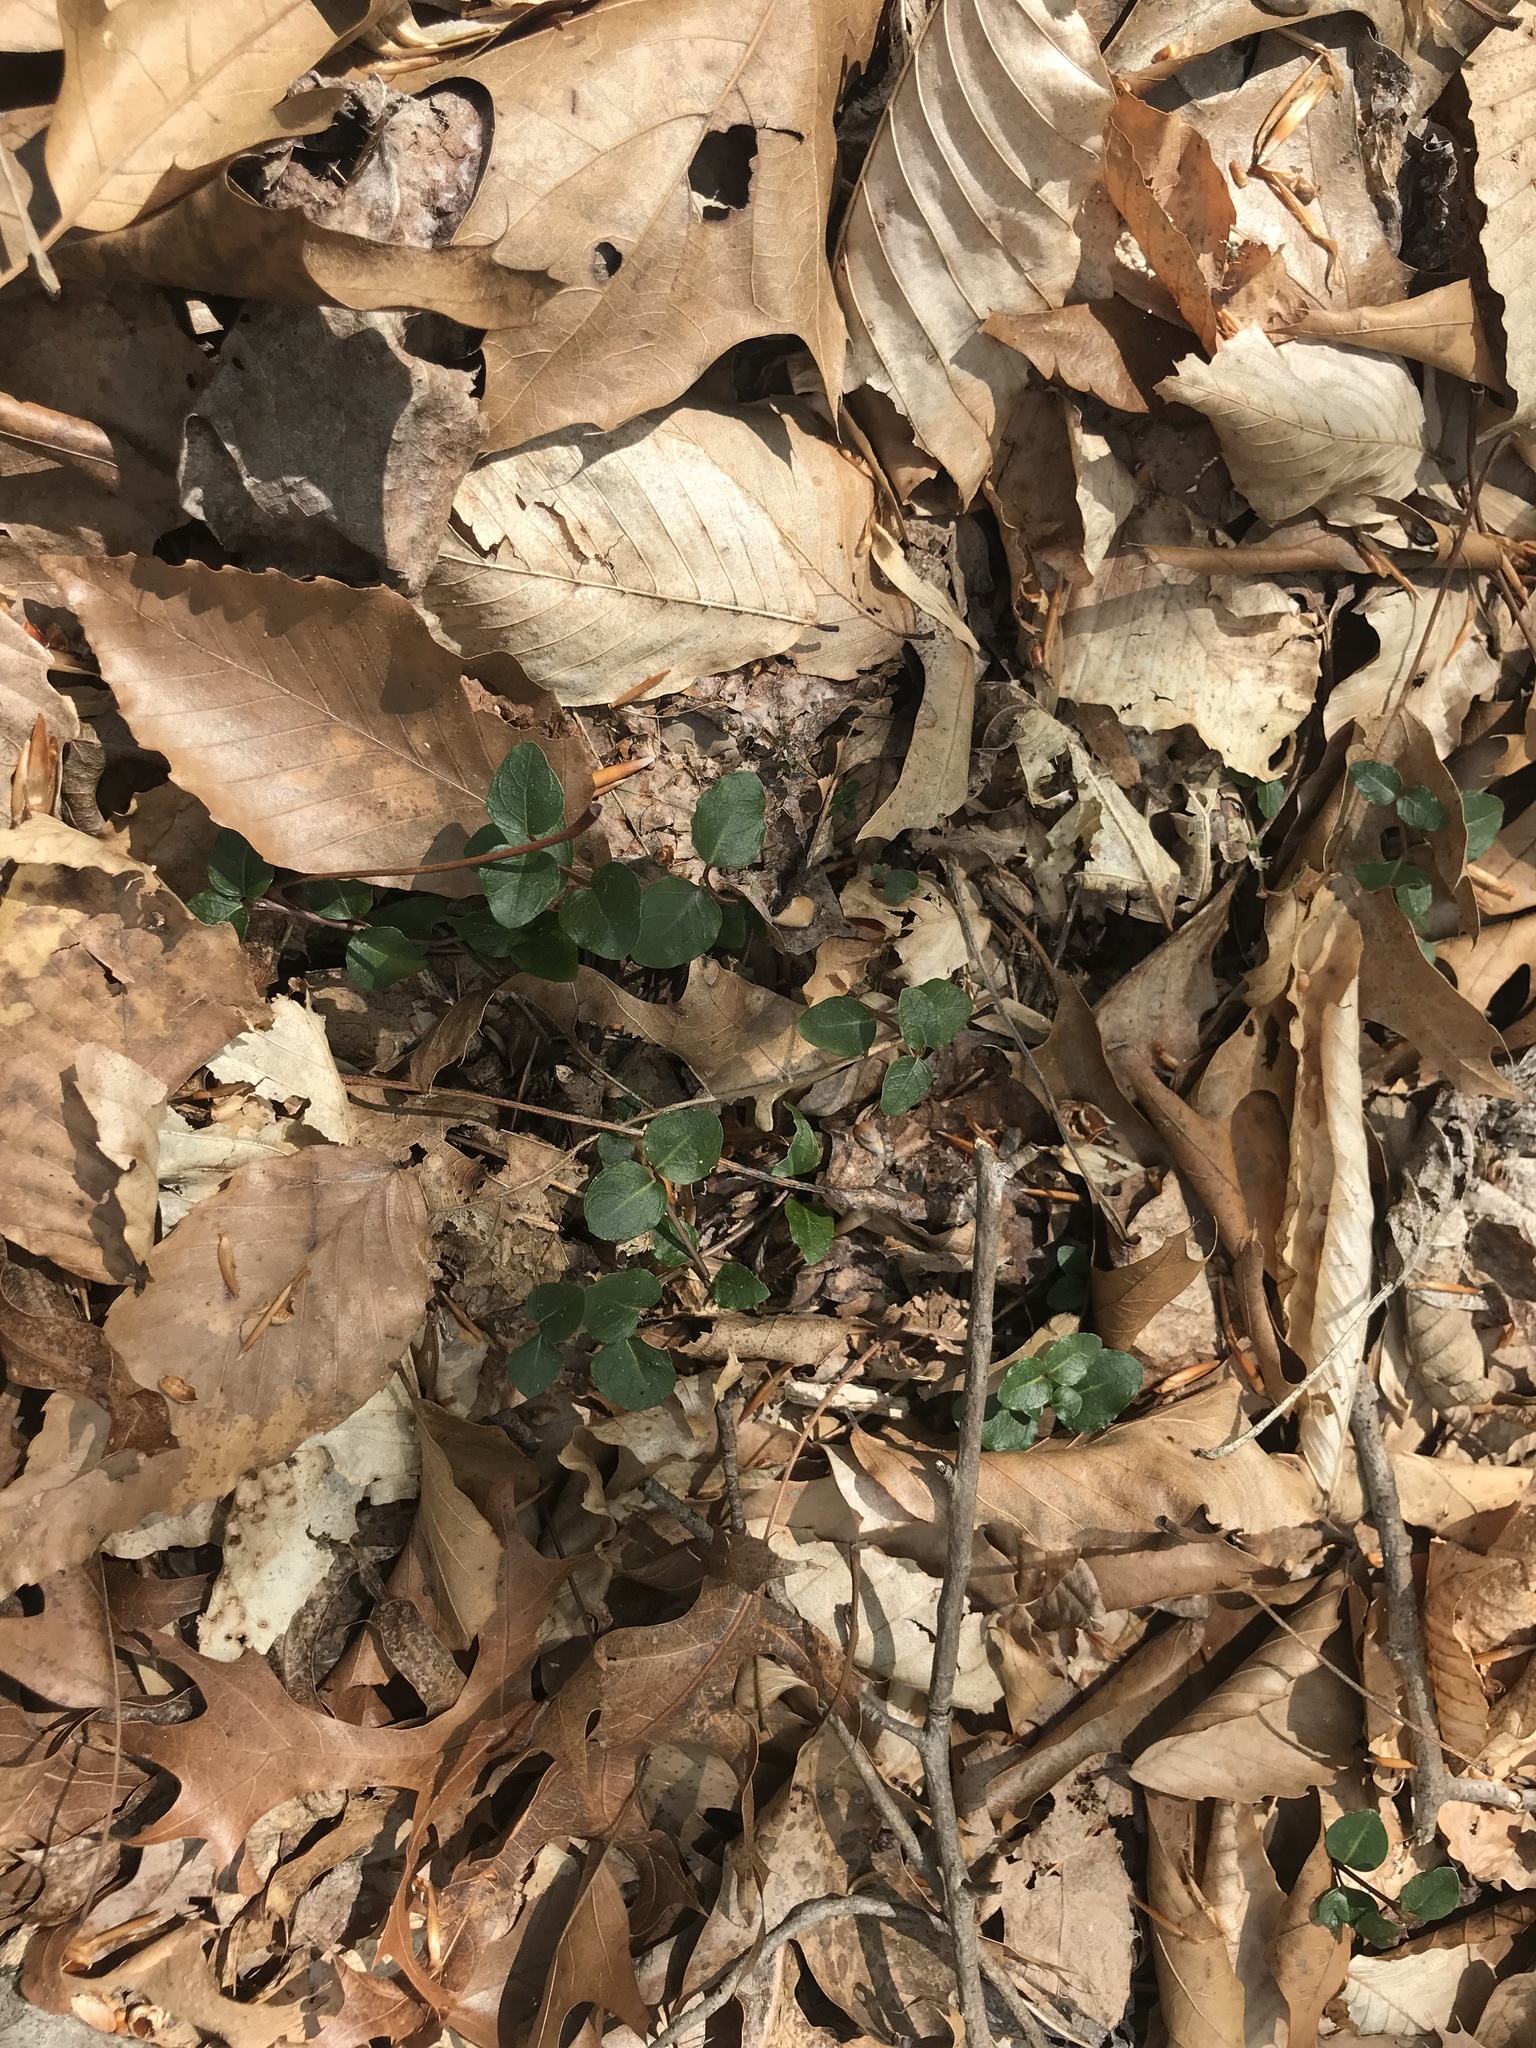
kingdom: Plantae
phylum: Tracheophyta
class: Magnoliopsida
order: Gentianales
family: Rubiaceae
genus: Mitchella
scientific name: Mitchella repens
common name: Partridge-berry
